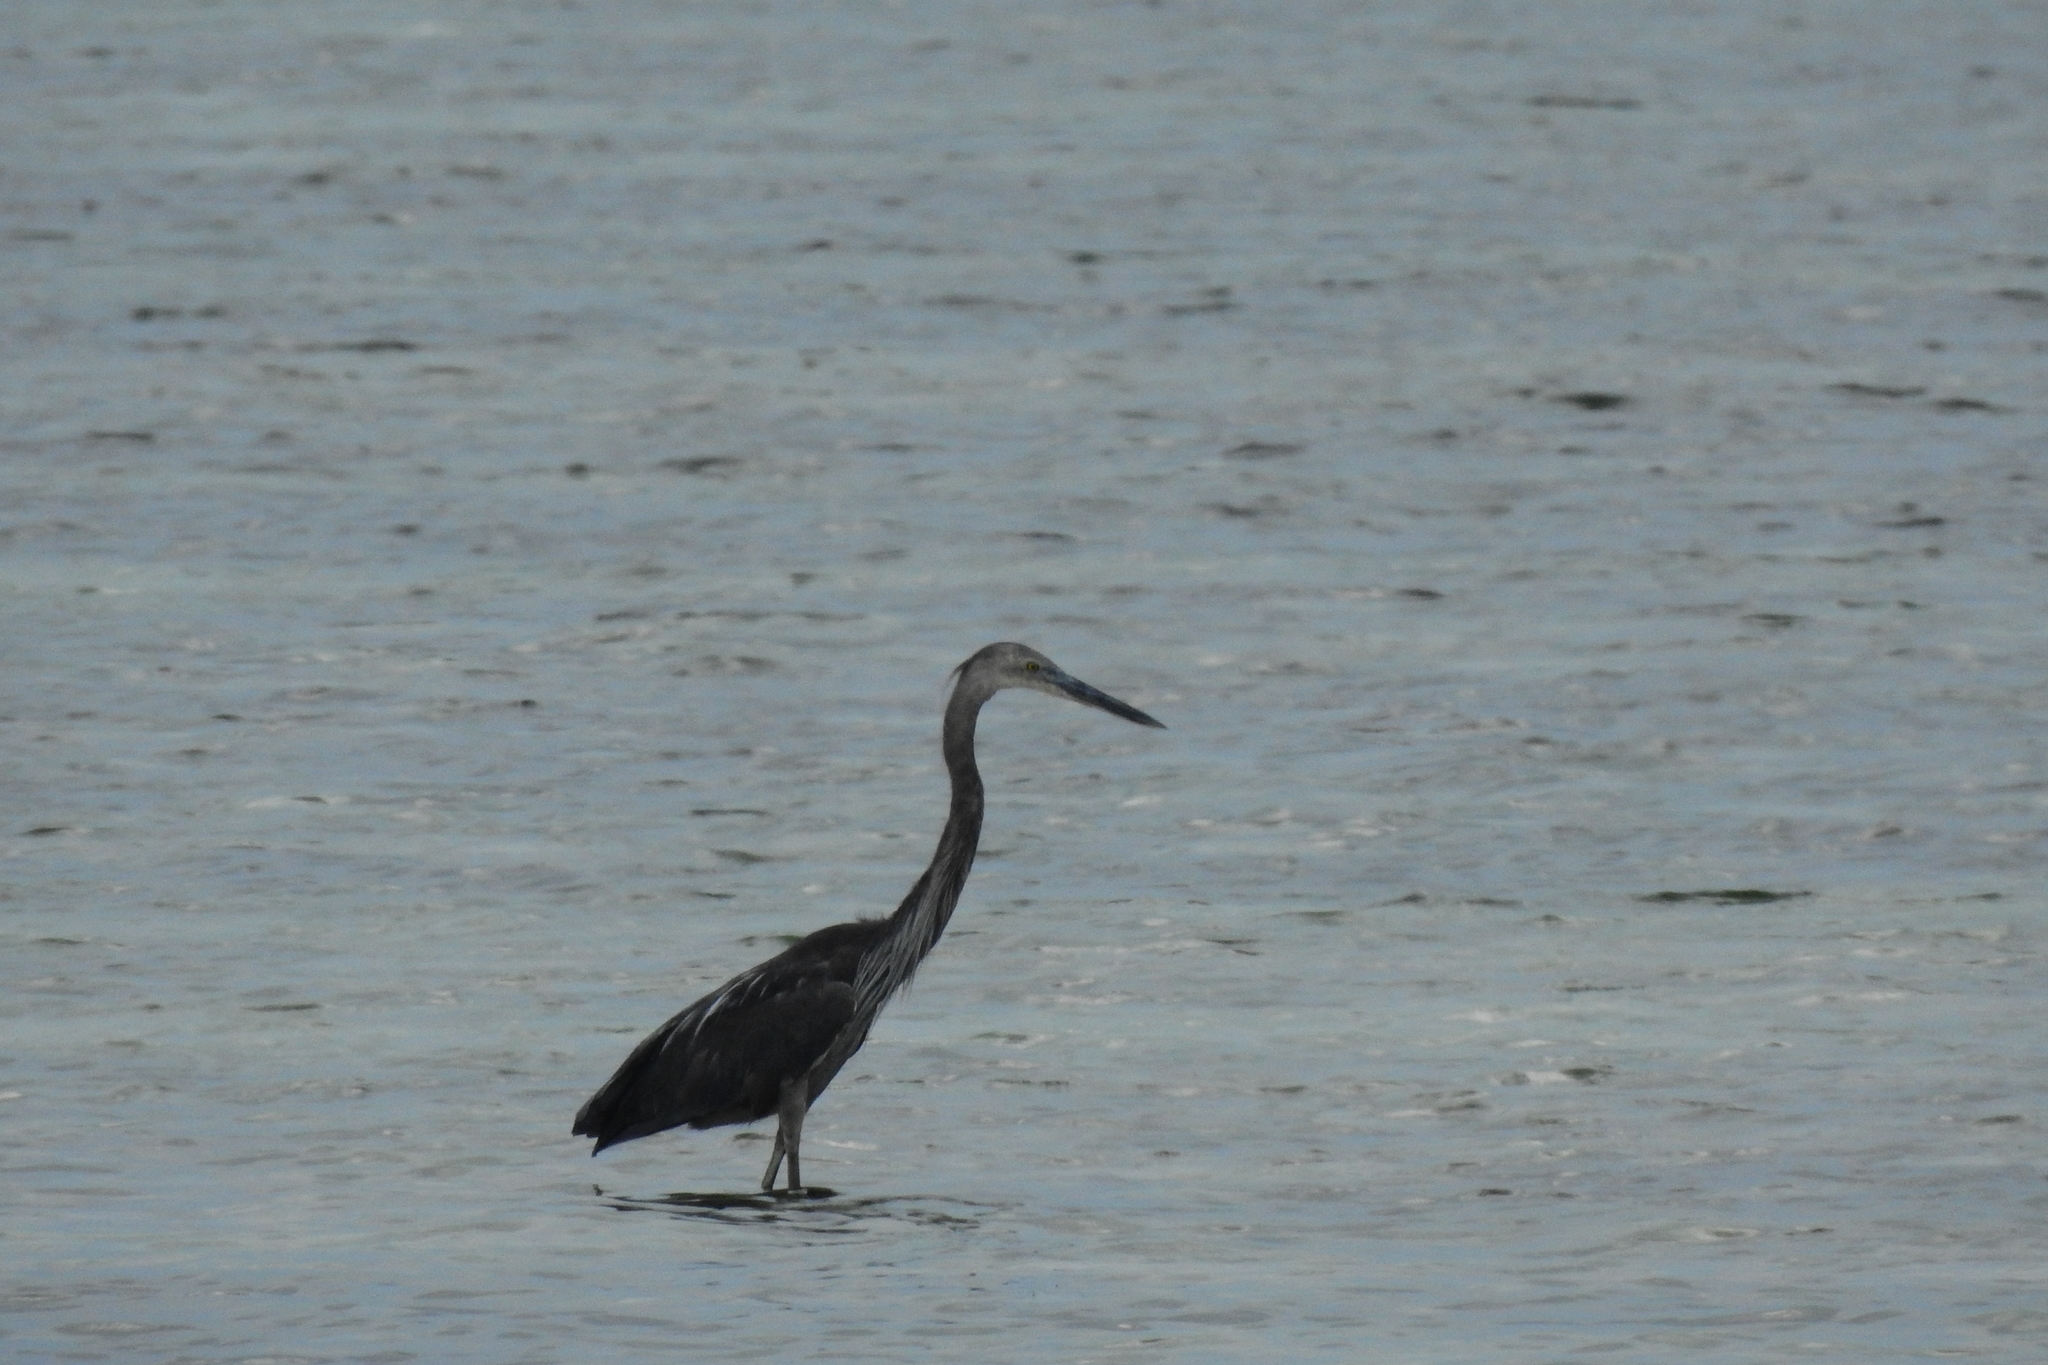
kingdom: Animalia
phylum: Chordata
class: Aves
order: Pelecaniformes
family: Ardeidae
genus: Ardea
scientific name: Ardea sumatrana
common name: Great-billed heron
